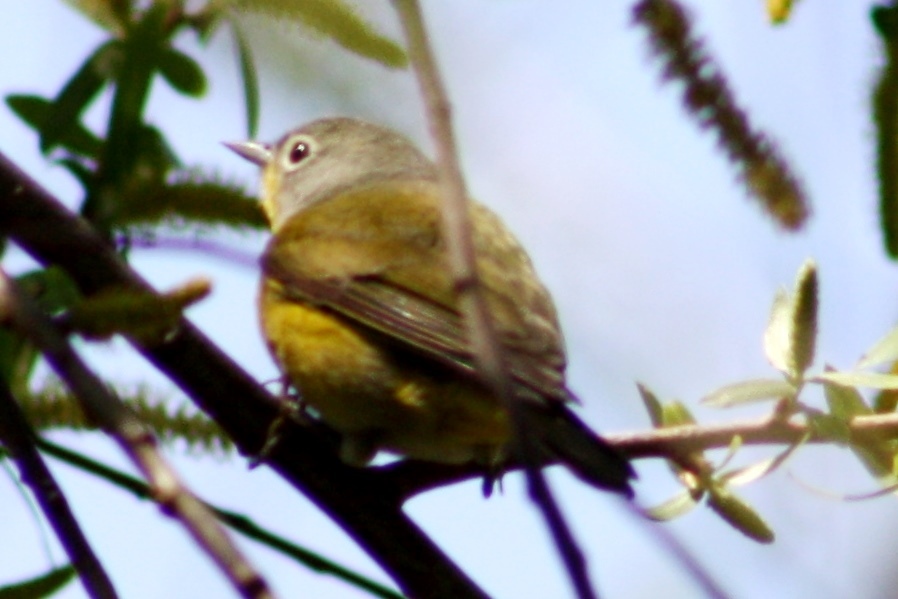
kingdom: Animalia
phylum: Chordata
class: Aves
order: Passeriformes
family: Parulidae
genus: Leiothlypis
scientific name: Leiothlypis ruficapilla
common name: Nashville warbler
